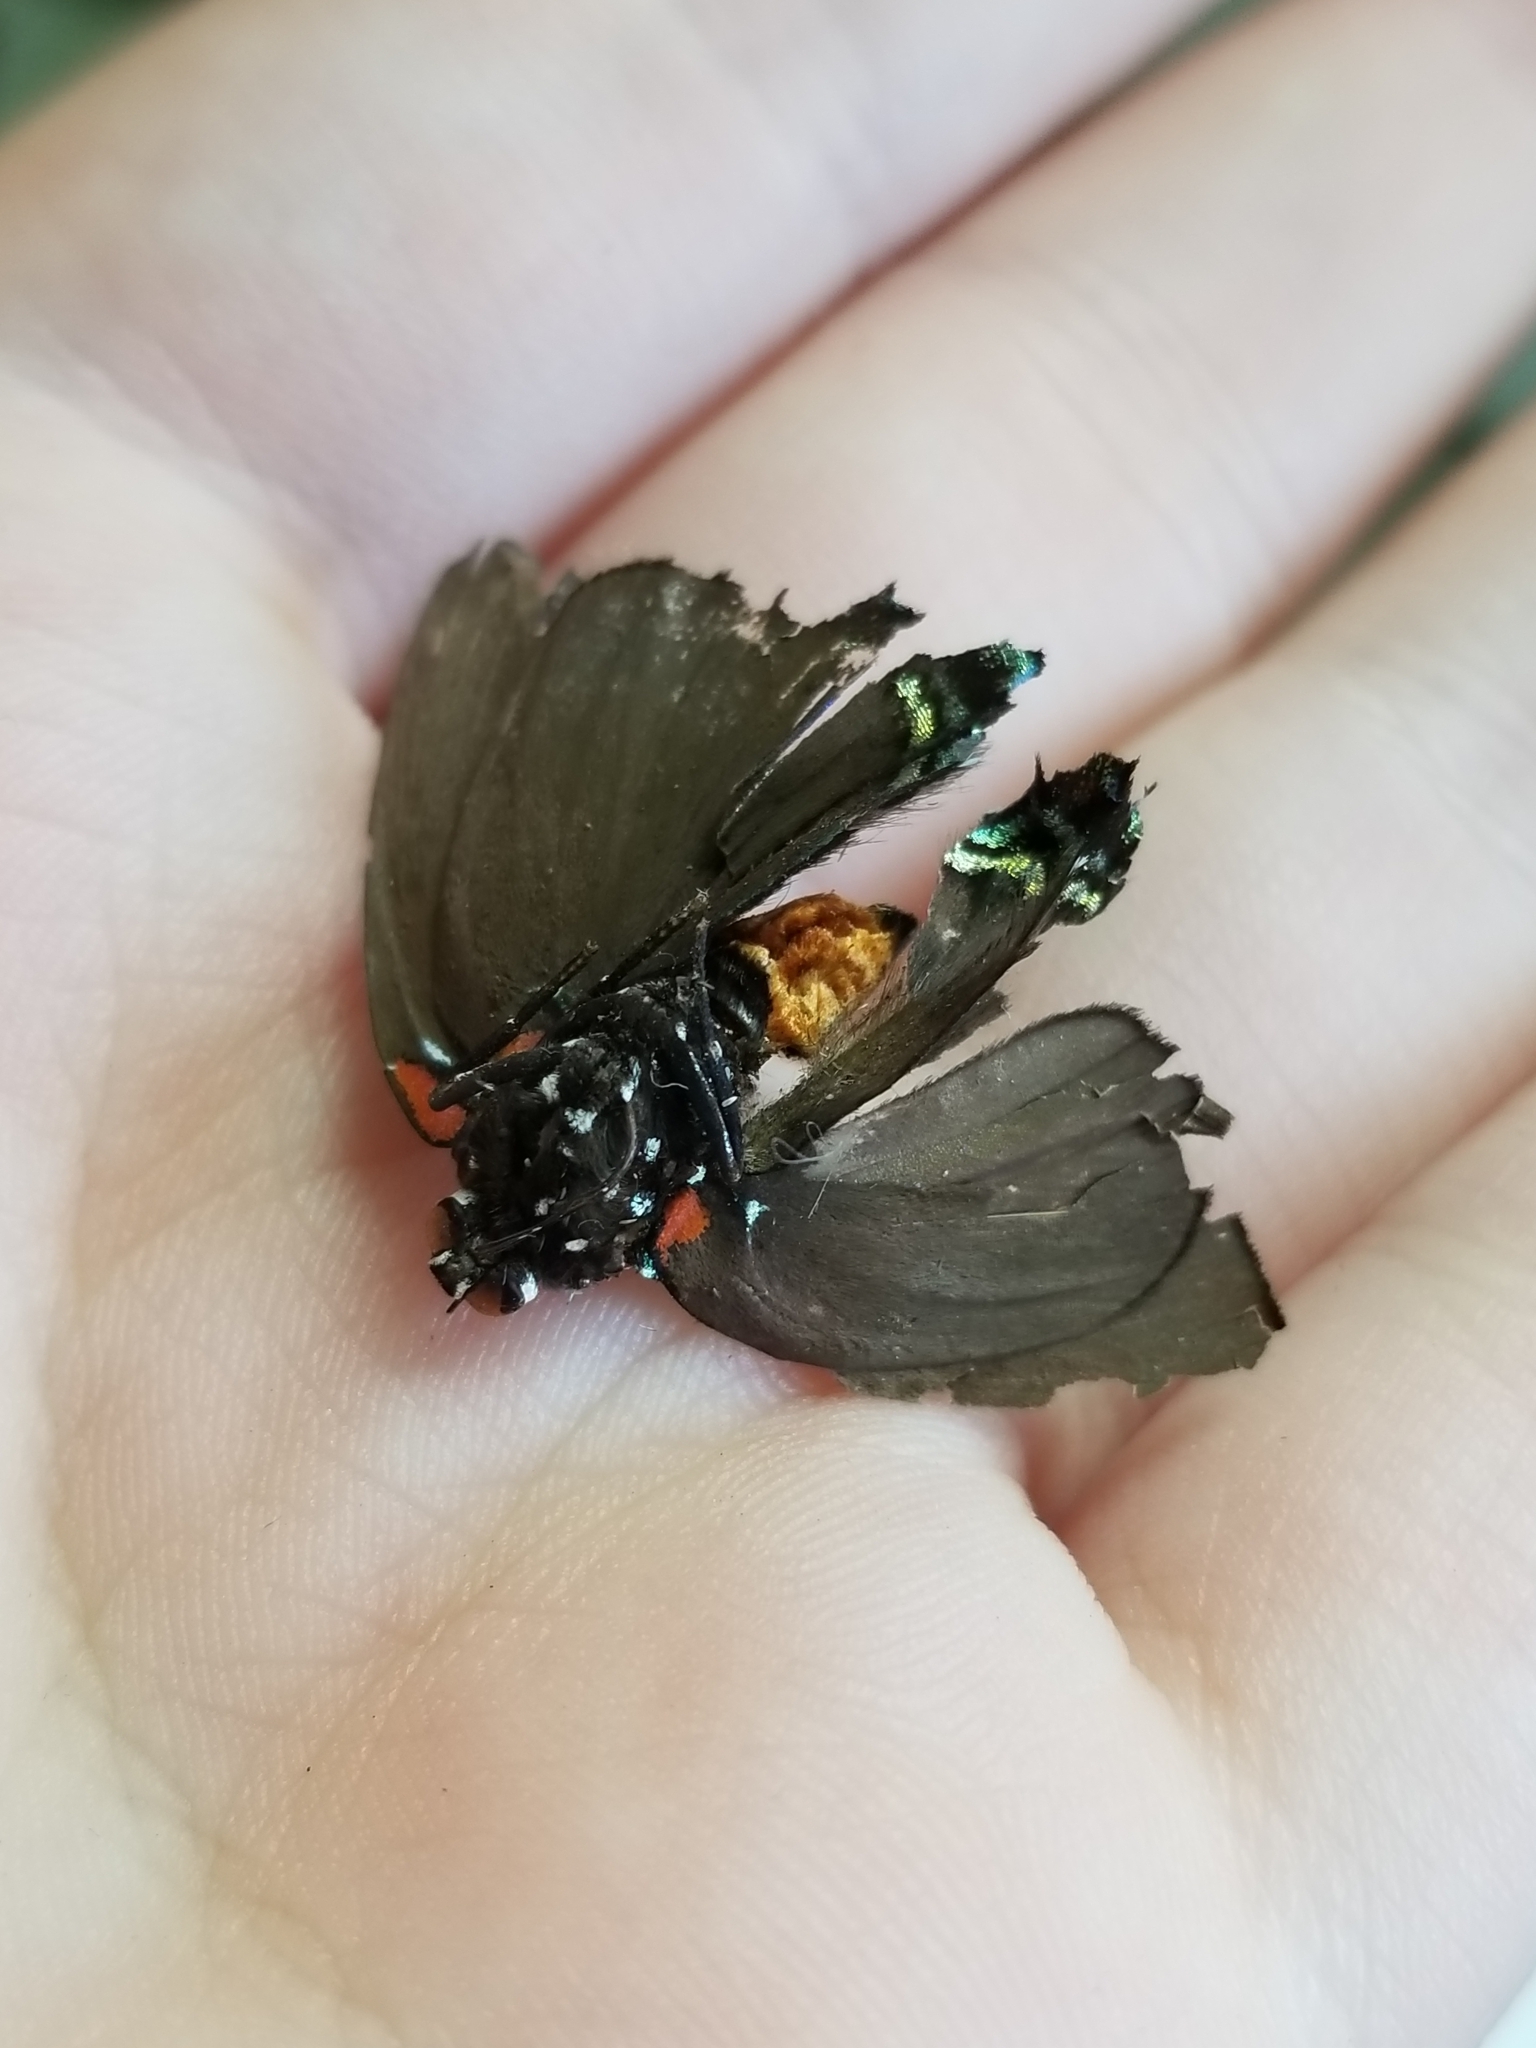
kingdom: Animalia
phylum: Arthropoda
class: Insecta
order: Lepidoptera
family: Lycaenidae
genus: Atlides
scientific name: Atlides halesus
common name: Great purple hairstreak
